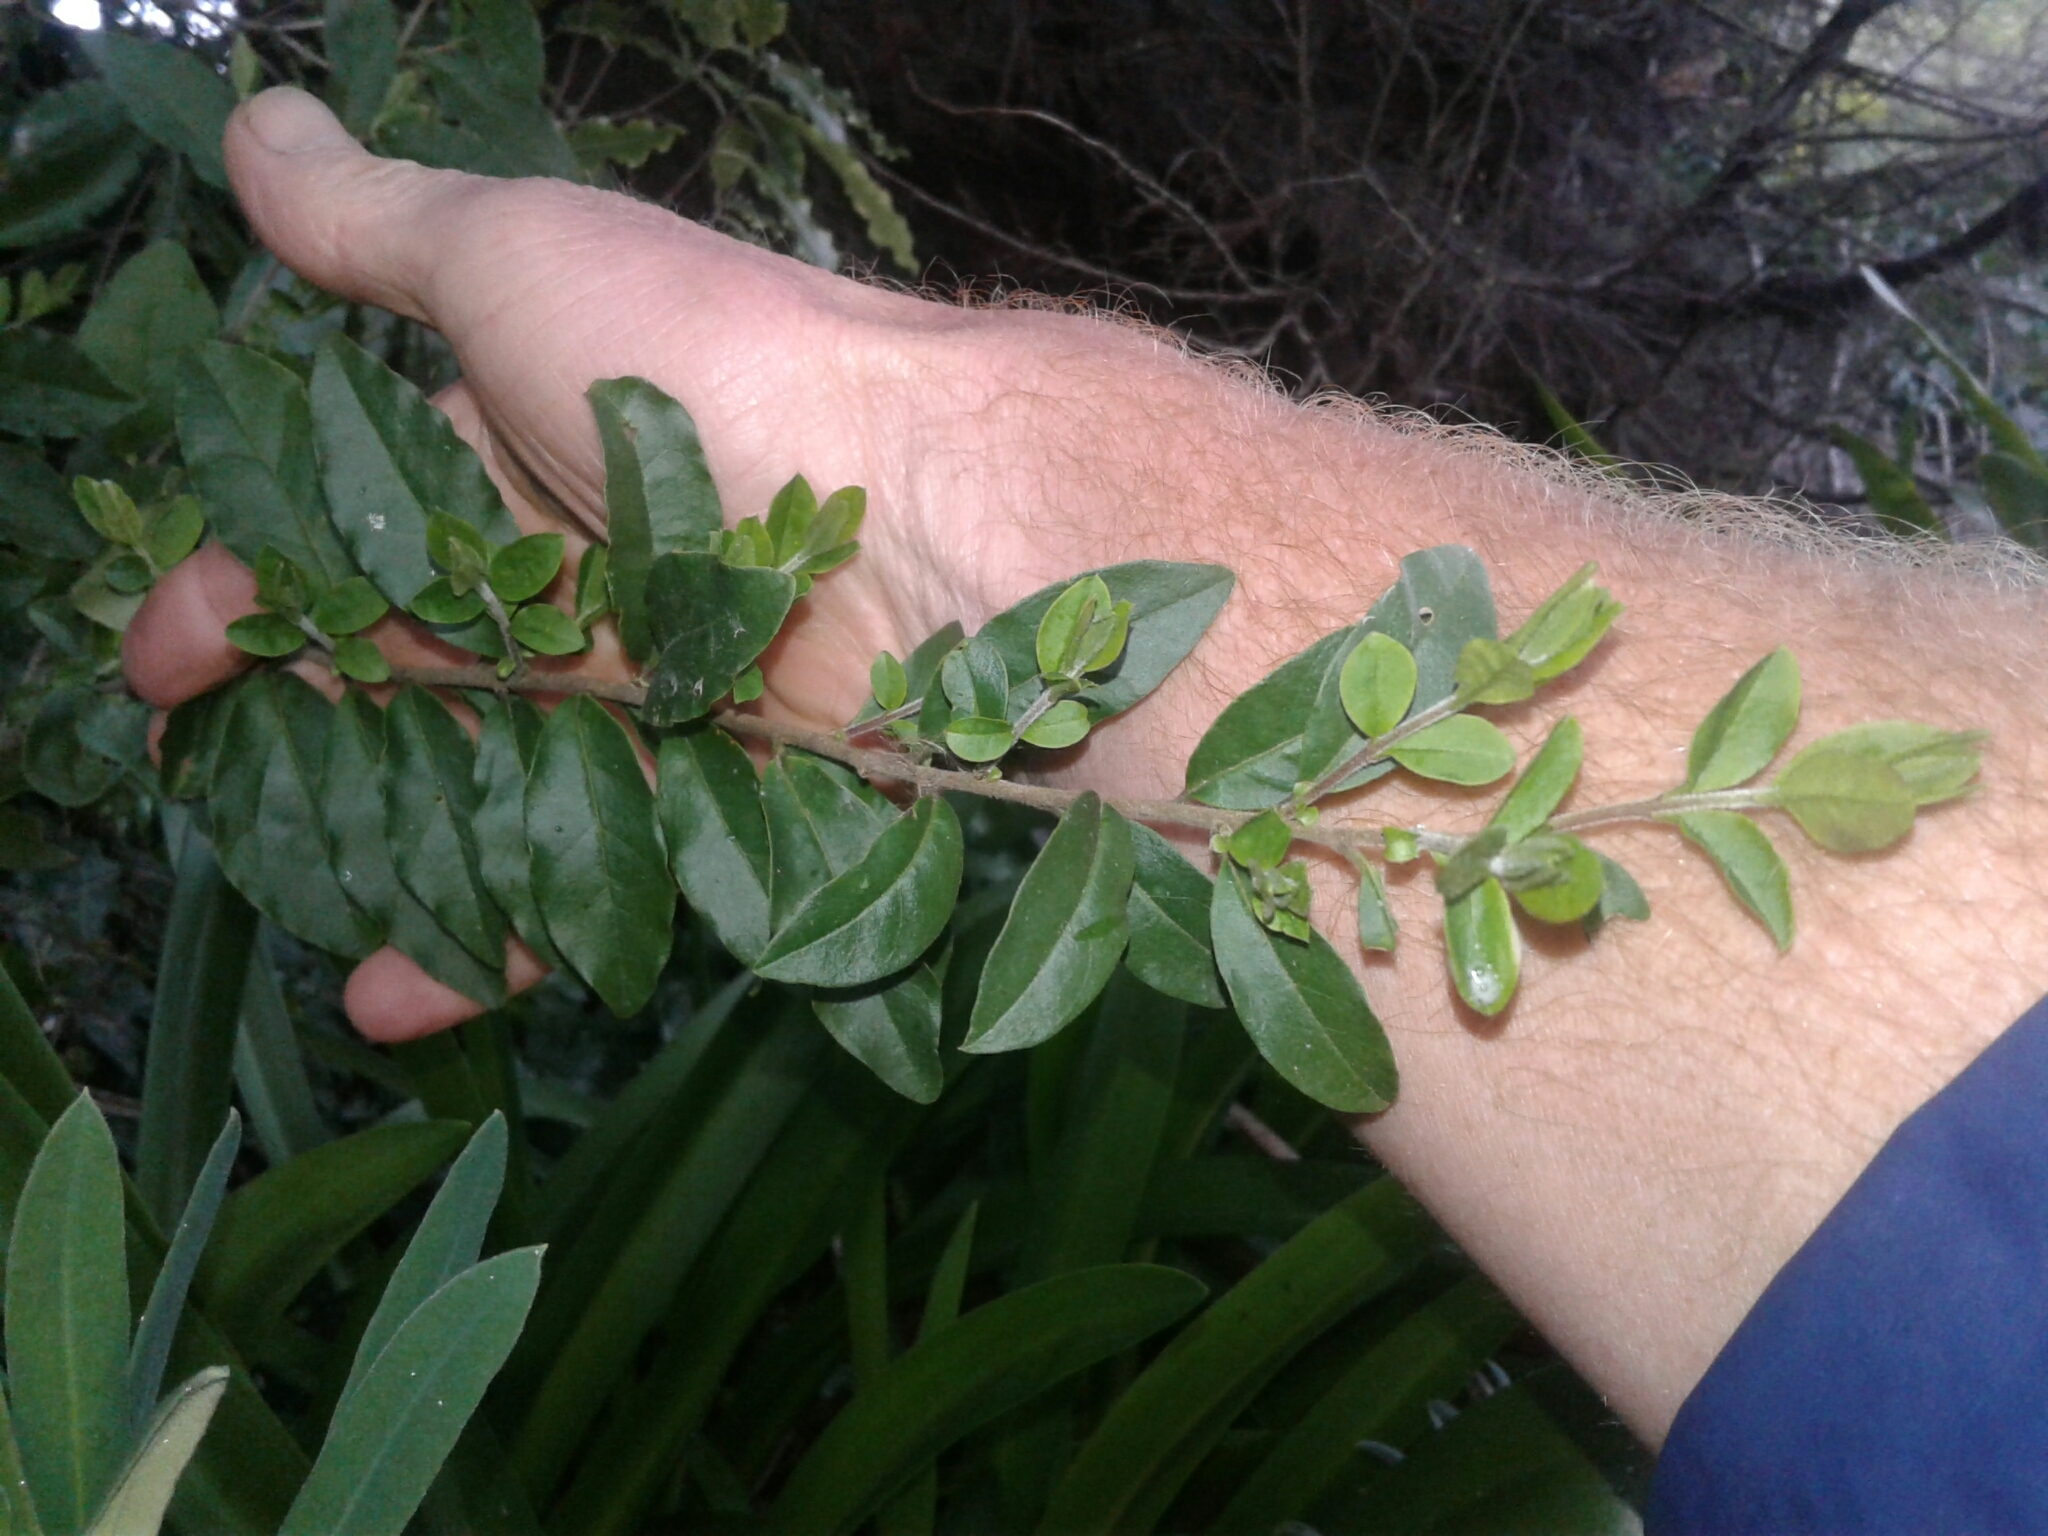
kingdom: Plantae
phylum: Tracheophyta
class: Magnoliopsida
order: Lamiales
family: Oleaceae
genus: Ligustrum
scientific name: Ligustrum sinense
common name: Chinese privet
